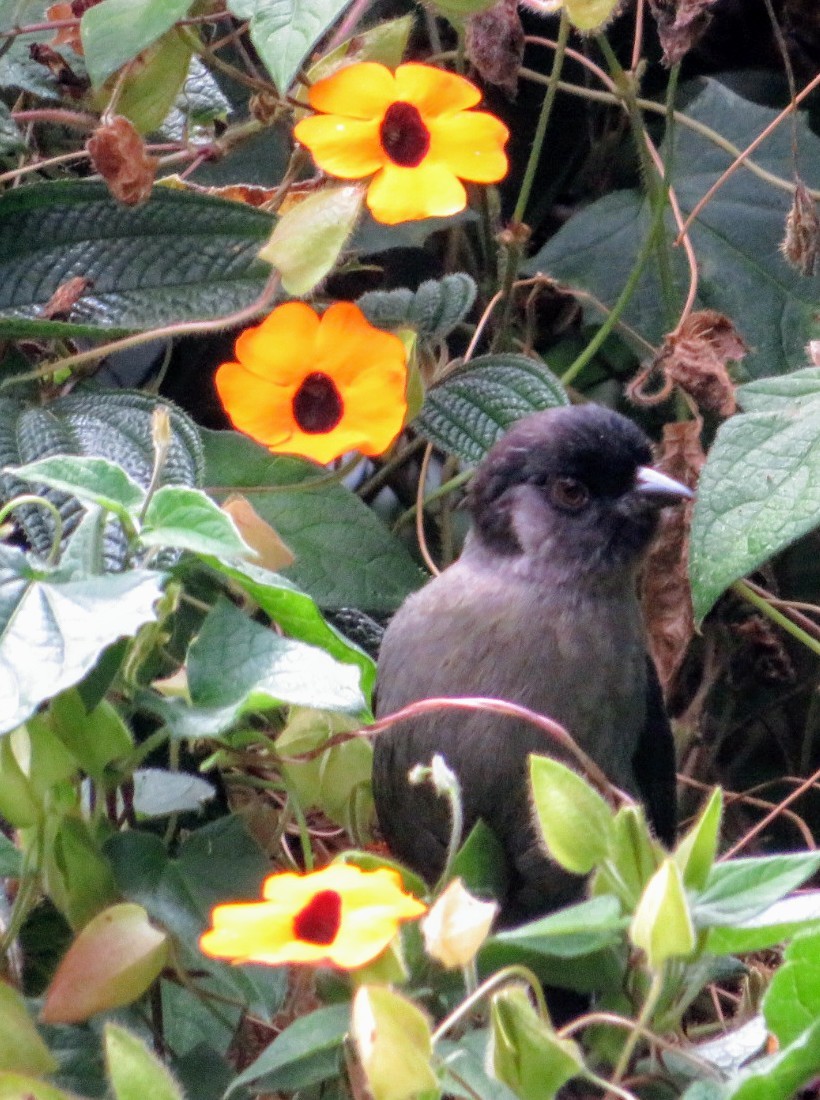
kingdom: Animalia
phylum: Chordata
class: Aves
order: Passeriformes
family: Passerellidae
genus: Atlapetes
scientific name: Atlapetes tibialis
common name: Yellow-thighed brushfinch
